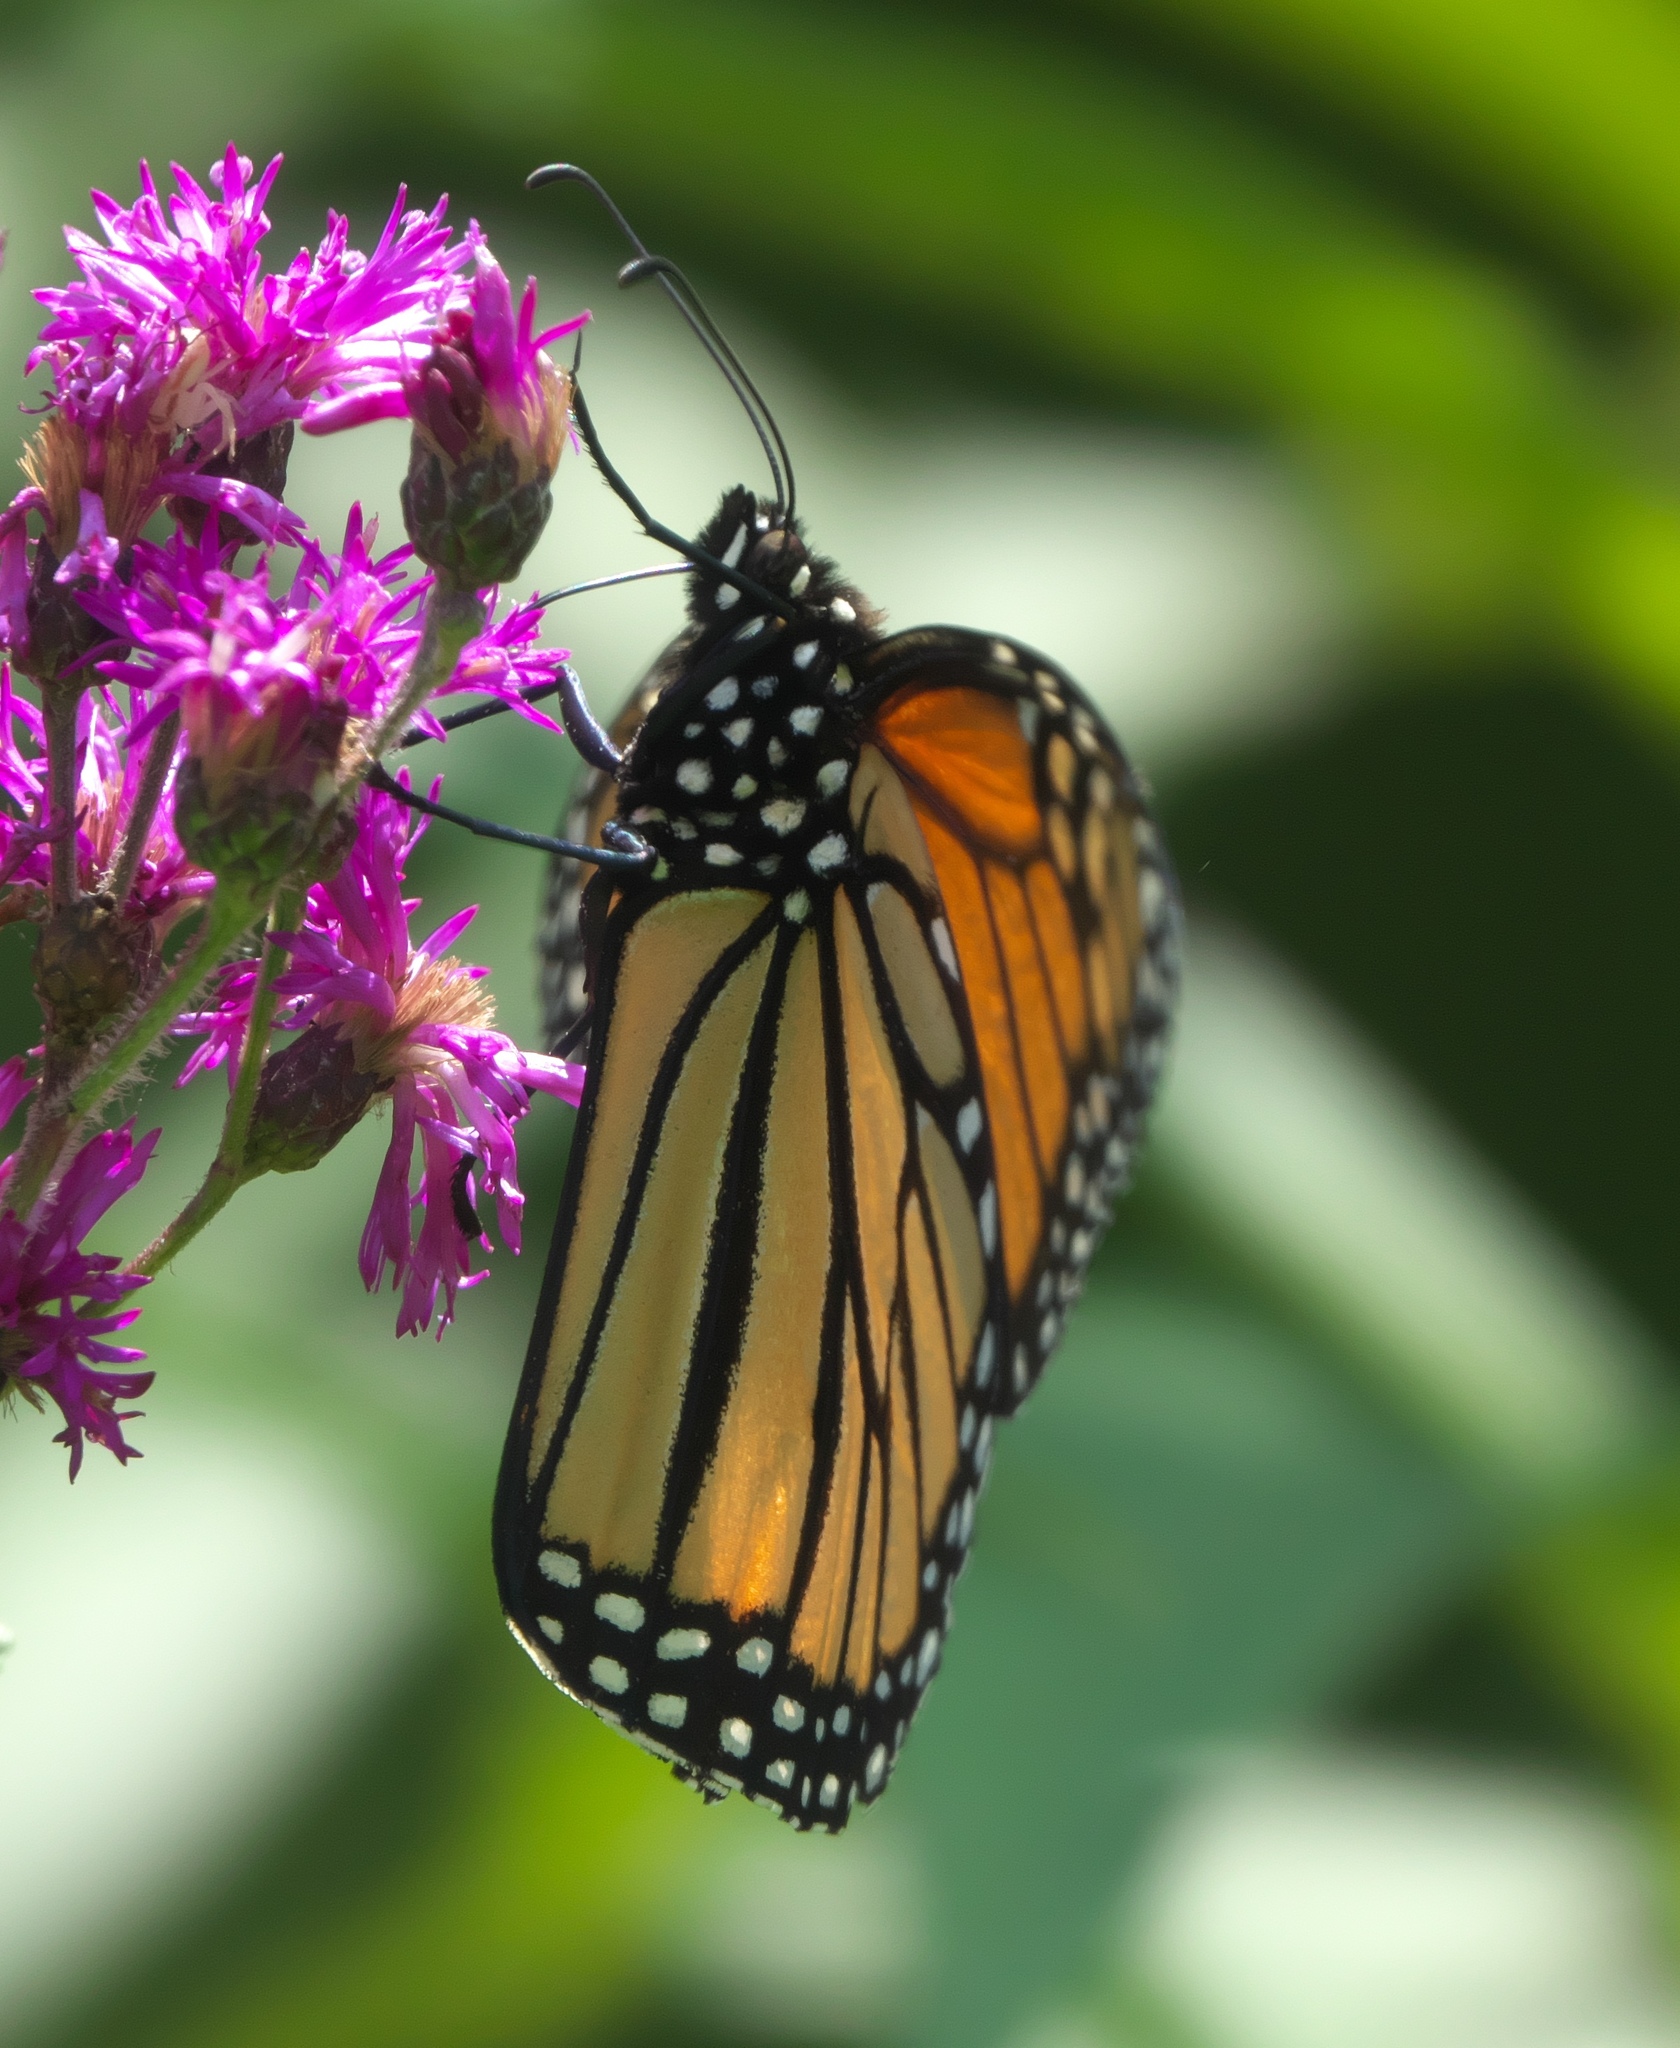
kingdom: Animalia
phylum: Arthropoda
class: Insecta
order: Lepidoptera
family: Nymphalidae
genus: Danaus
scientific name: Danaus plexippus
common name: Monarch
